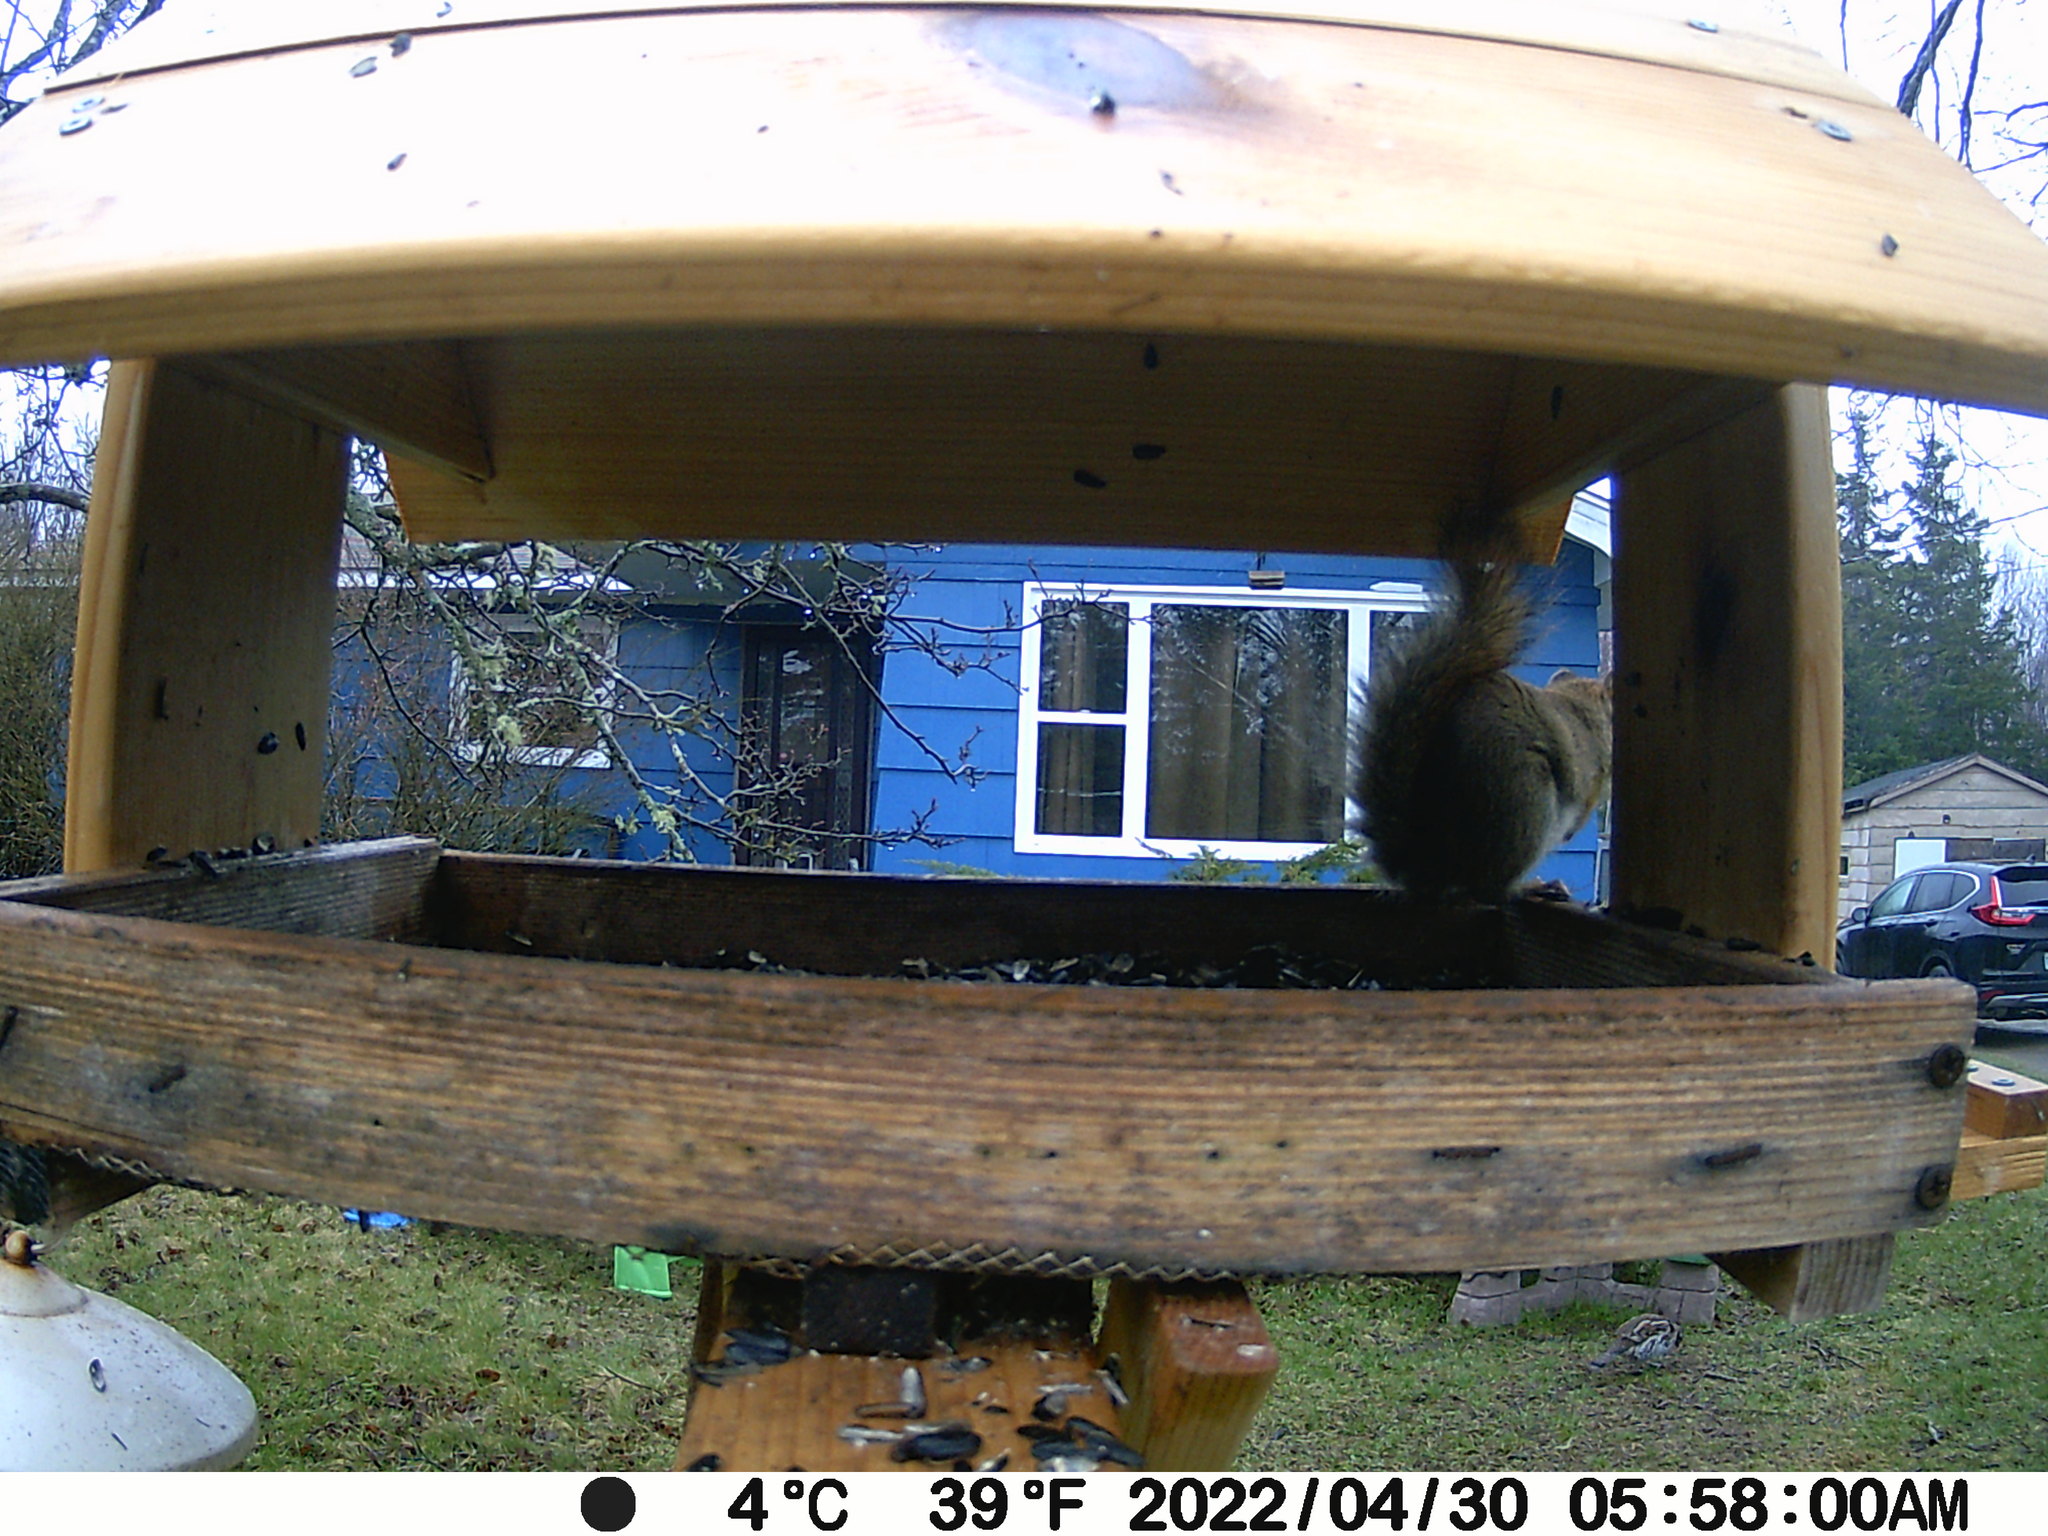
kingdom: Animalia
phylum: Chordata
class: Aves
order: Galliformes
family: Phasianidae
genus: Bonasa
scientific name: Bonasa umbellus
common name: Ruffed grouse
